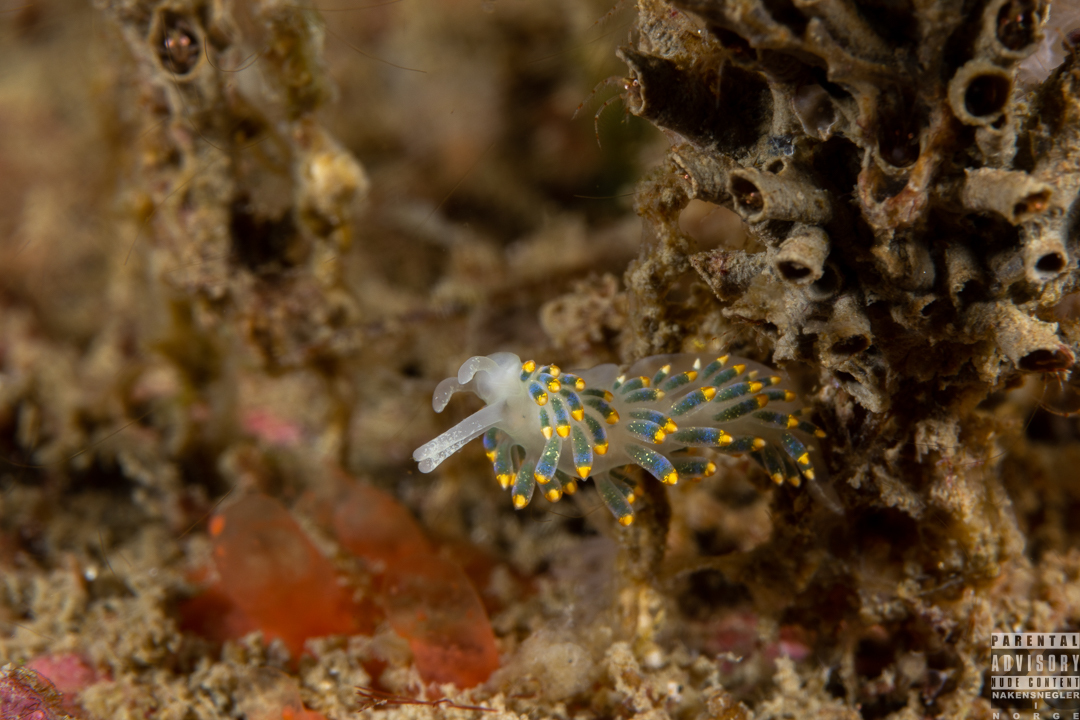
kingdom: Animalia
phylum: Mollusca
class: Gastropoda
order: Nudibranchia
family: Trinchesiidae
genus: Trinchesia
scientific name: Trinchesia cuanensis
